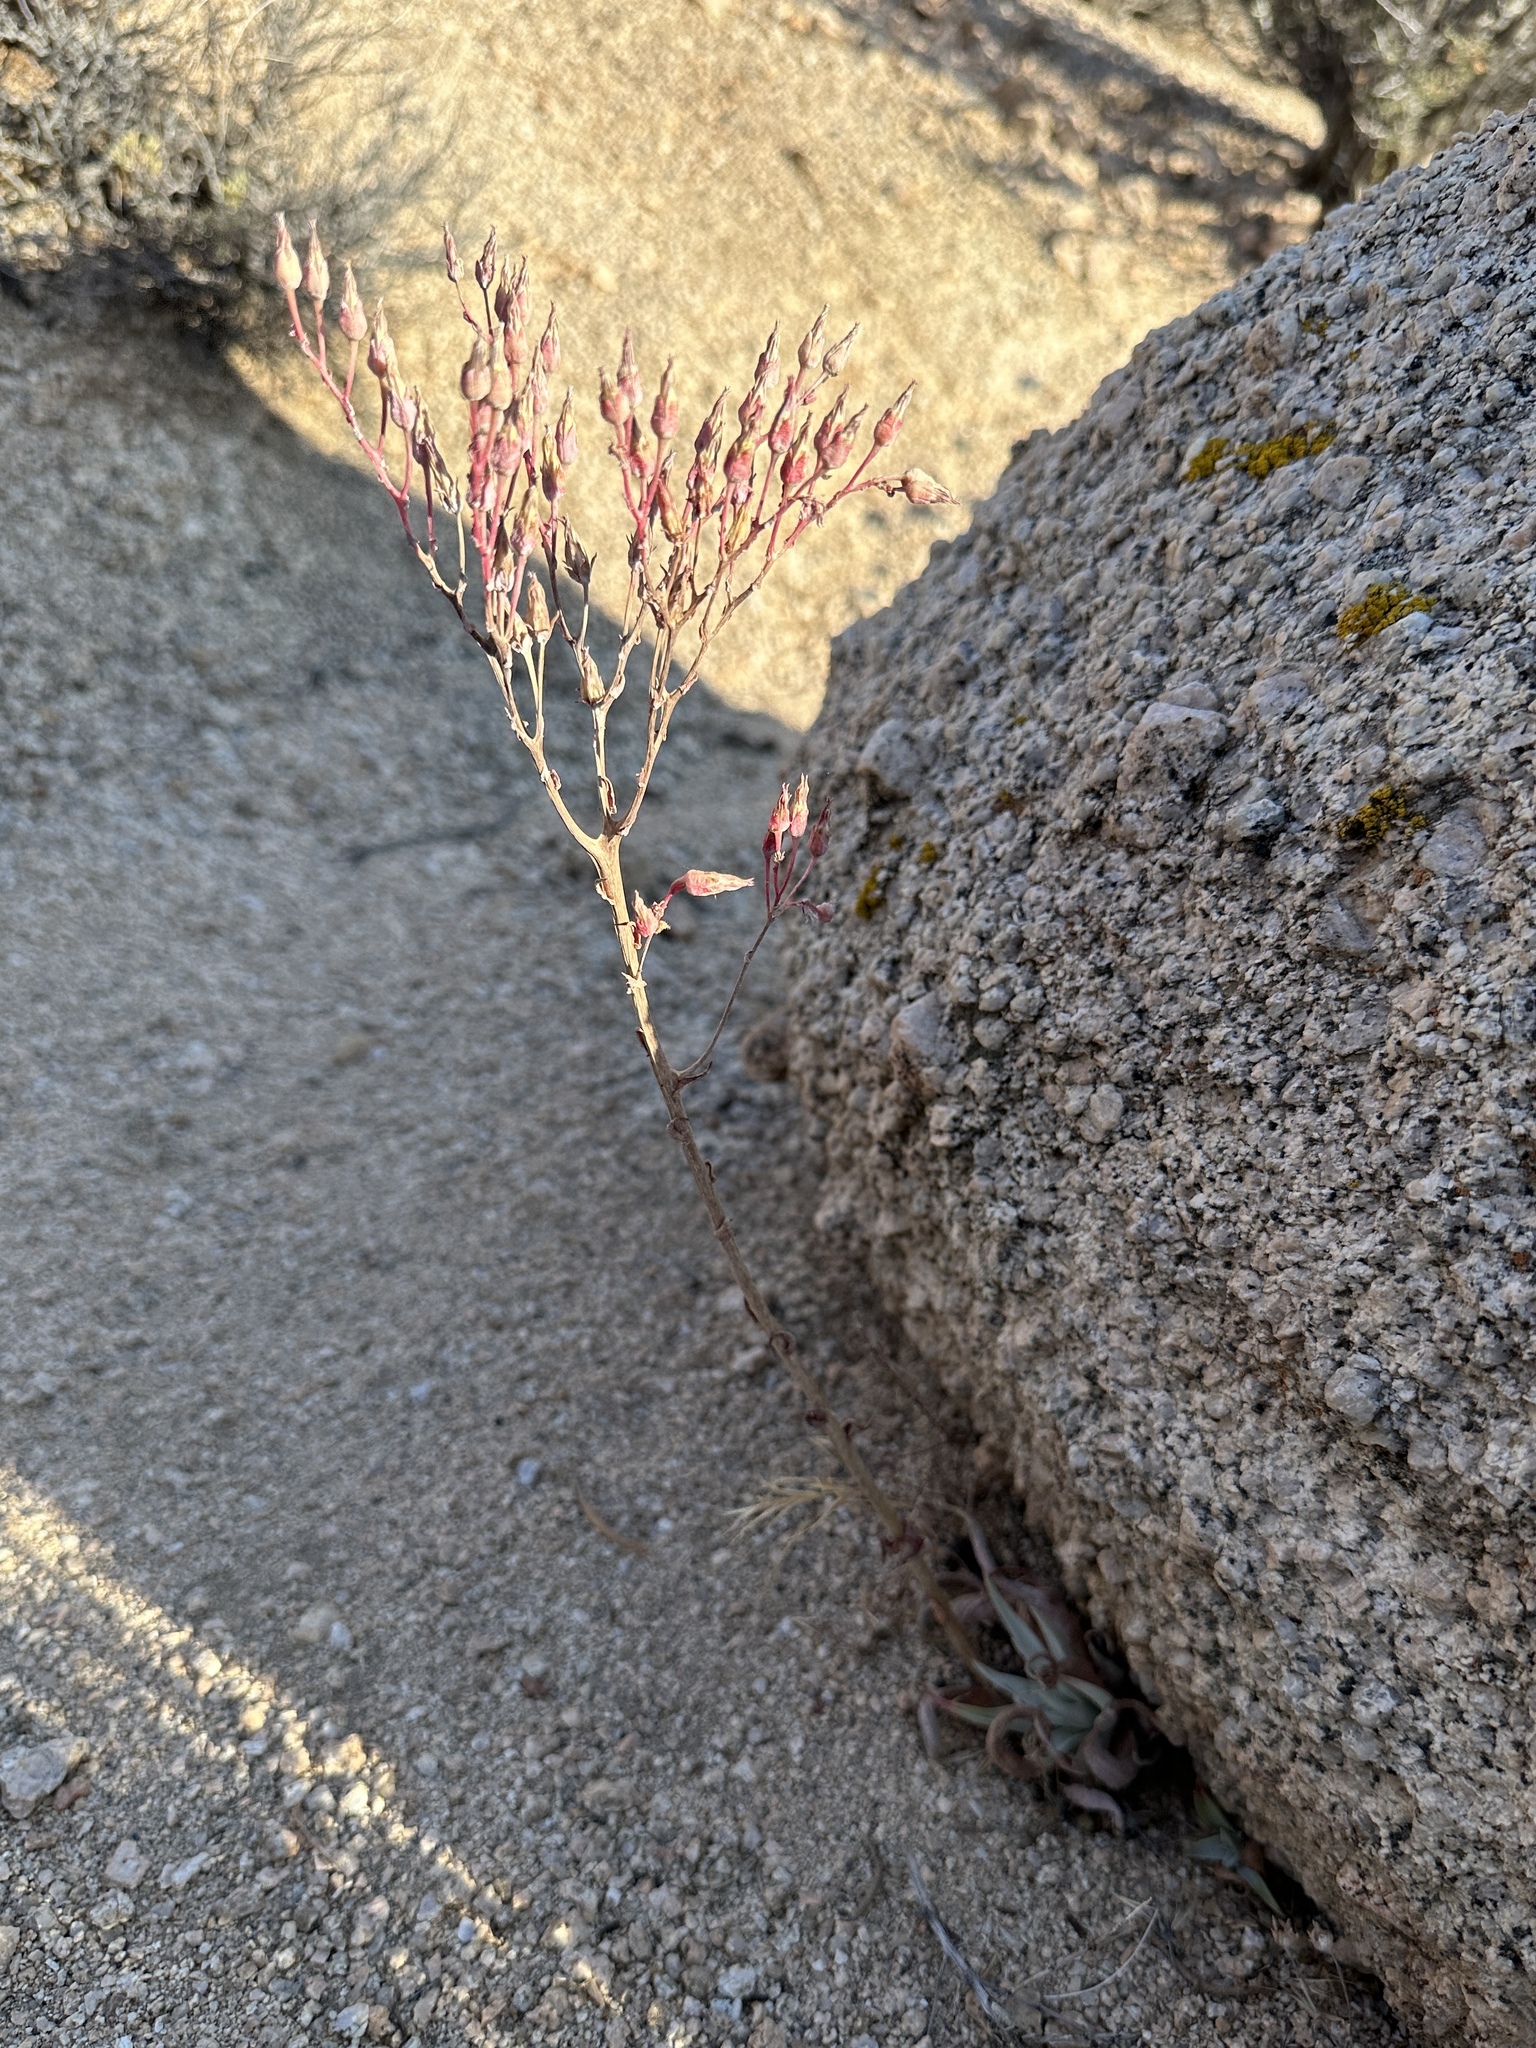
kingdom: Plantae
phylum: Tracheophyta
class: Magnoliopsida
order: Saxifragales
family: Crassulaceae
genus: Dudleya
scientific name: Dudleya saxosa
